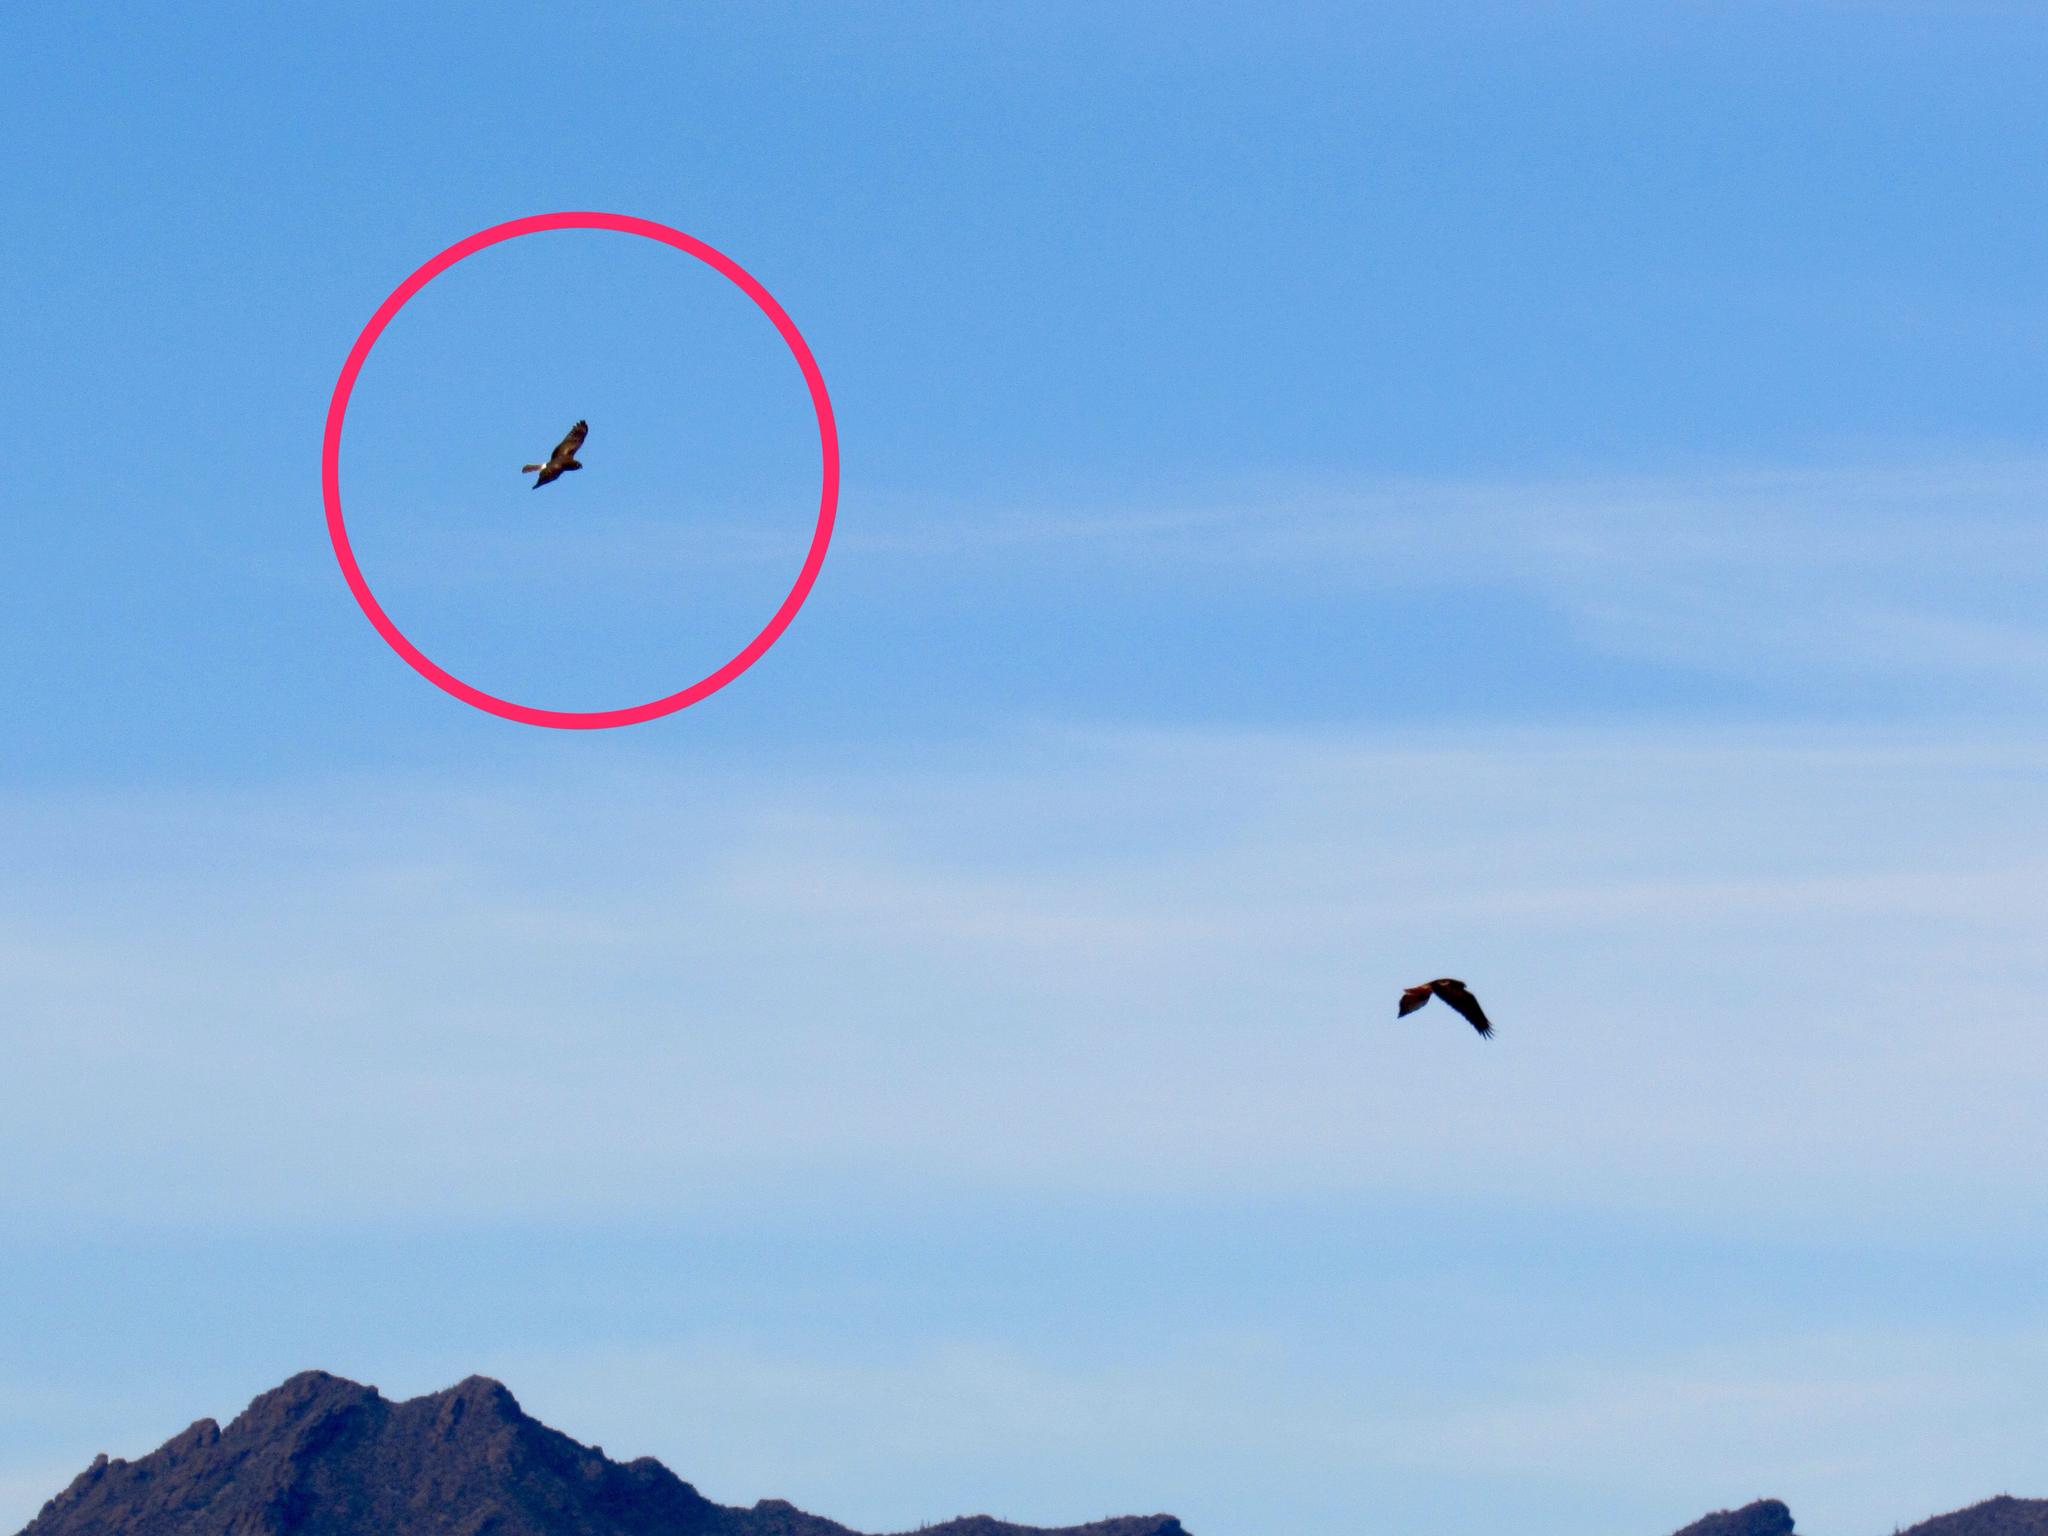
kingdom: Animalia
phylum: Chordata
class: Aves
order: Accipitriformes
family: Accipitridae
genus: Circus
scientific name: Circus cyaneus
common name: Hen harrier
